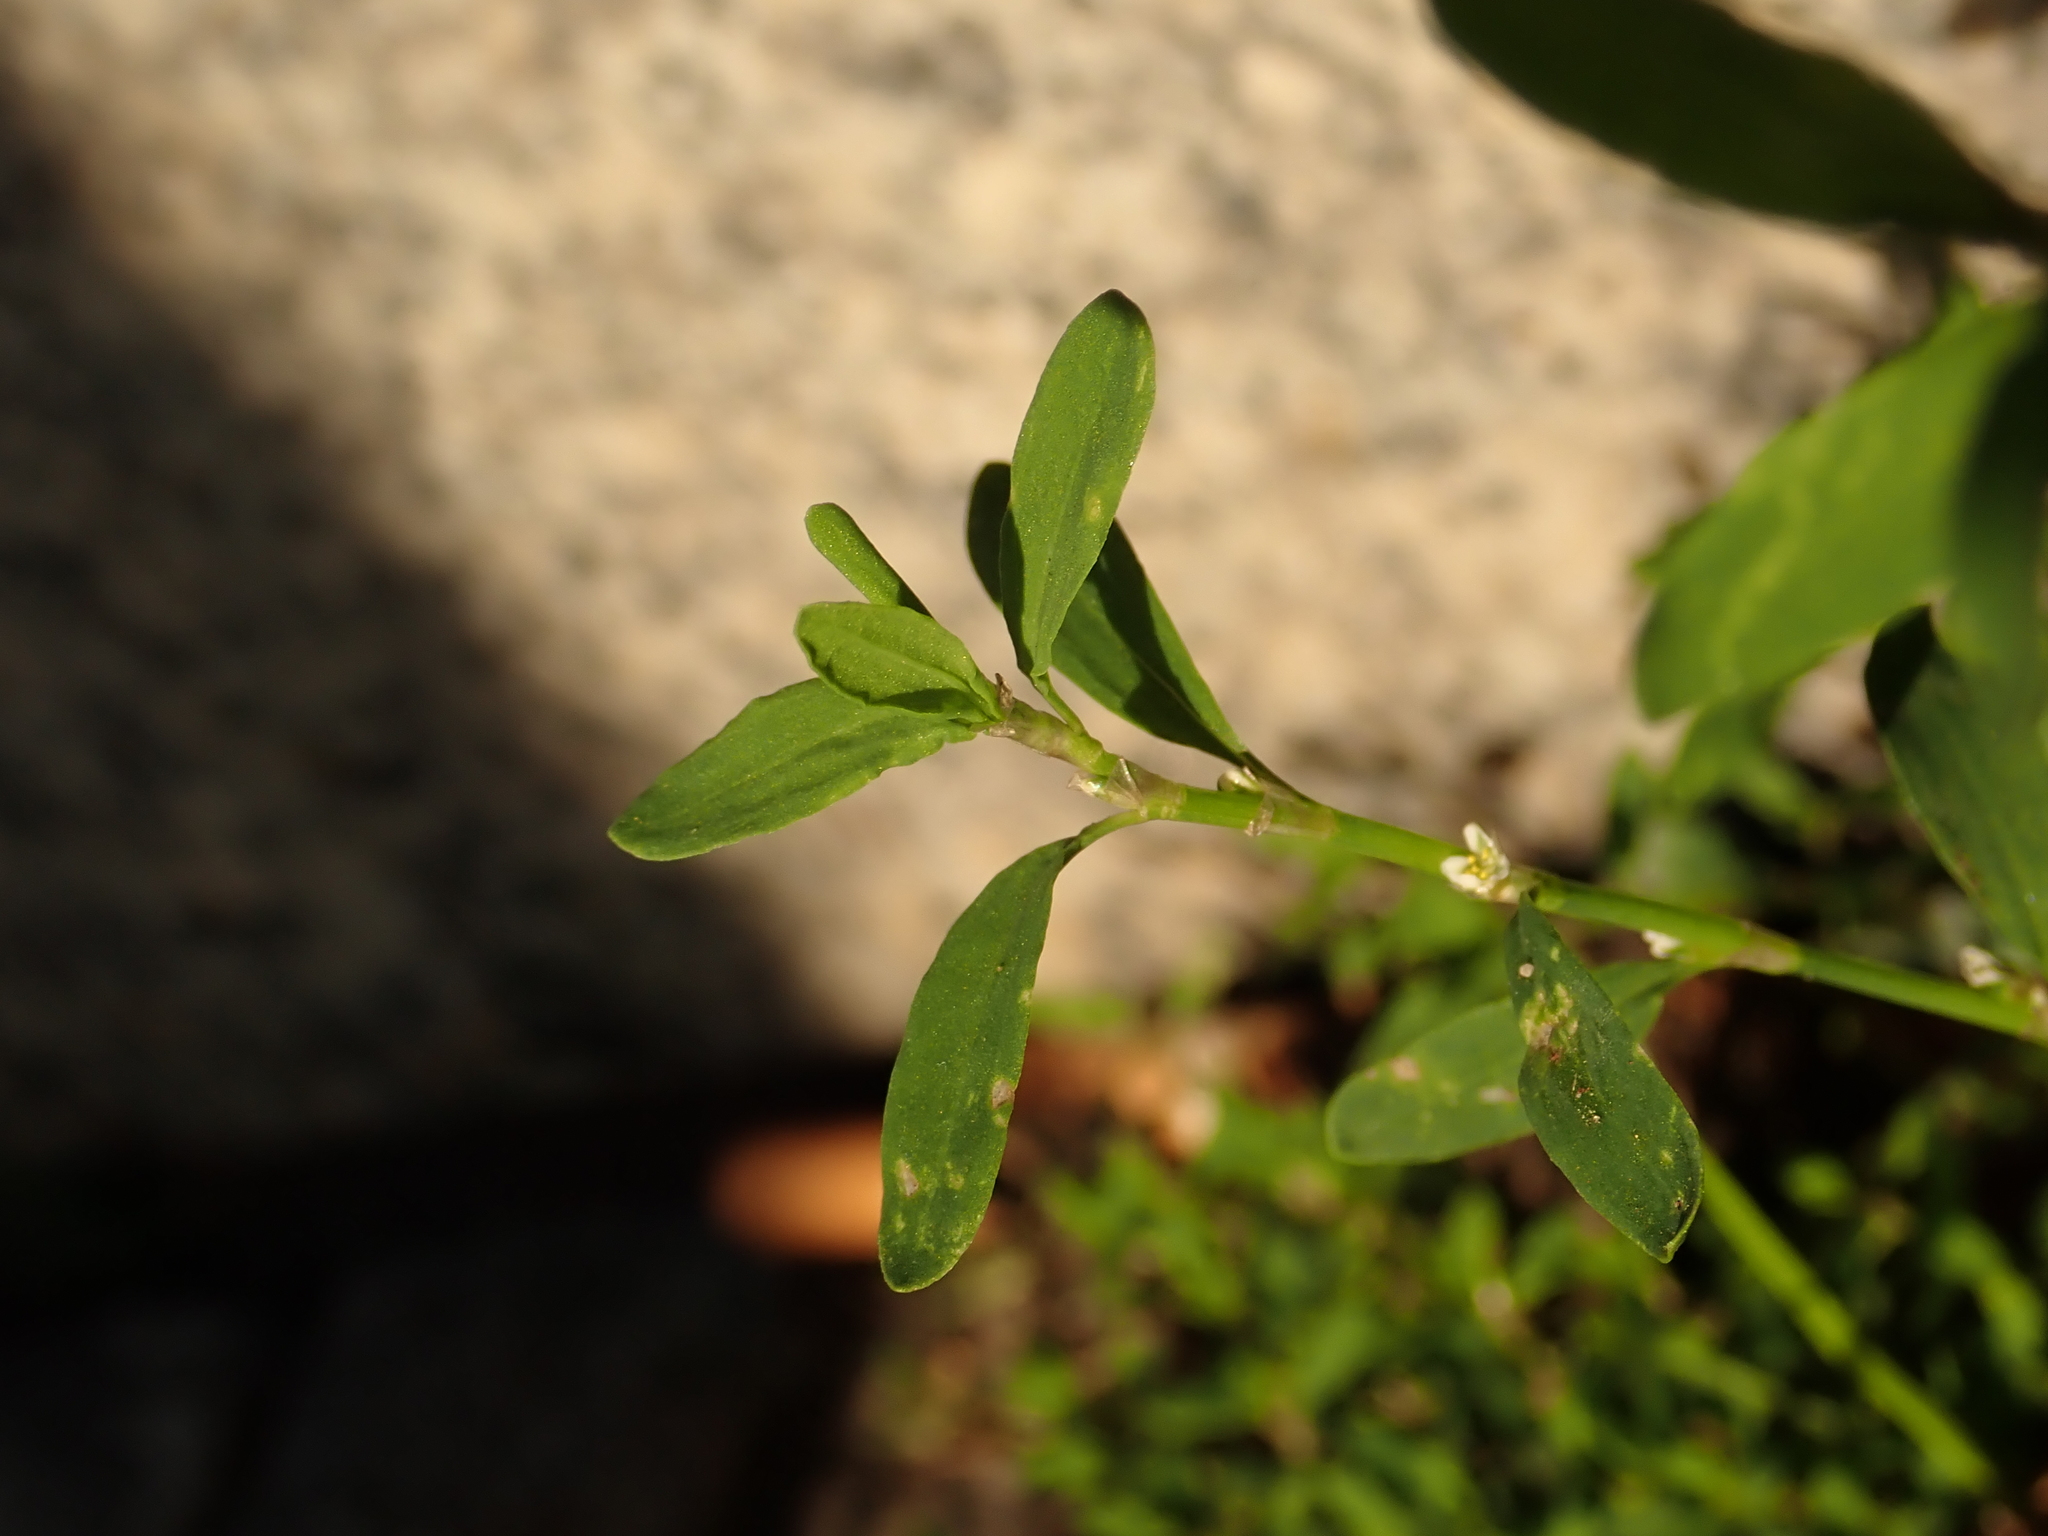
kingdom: Plantae
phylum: Tracheophyta
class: Magnoliopsida
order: Caryophyllales
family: Polygonaceae
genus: Polygonum
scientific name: Polygonum aviculare
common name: Prostrate knotweed
